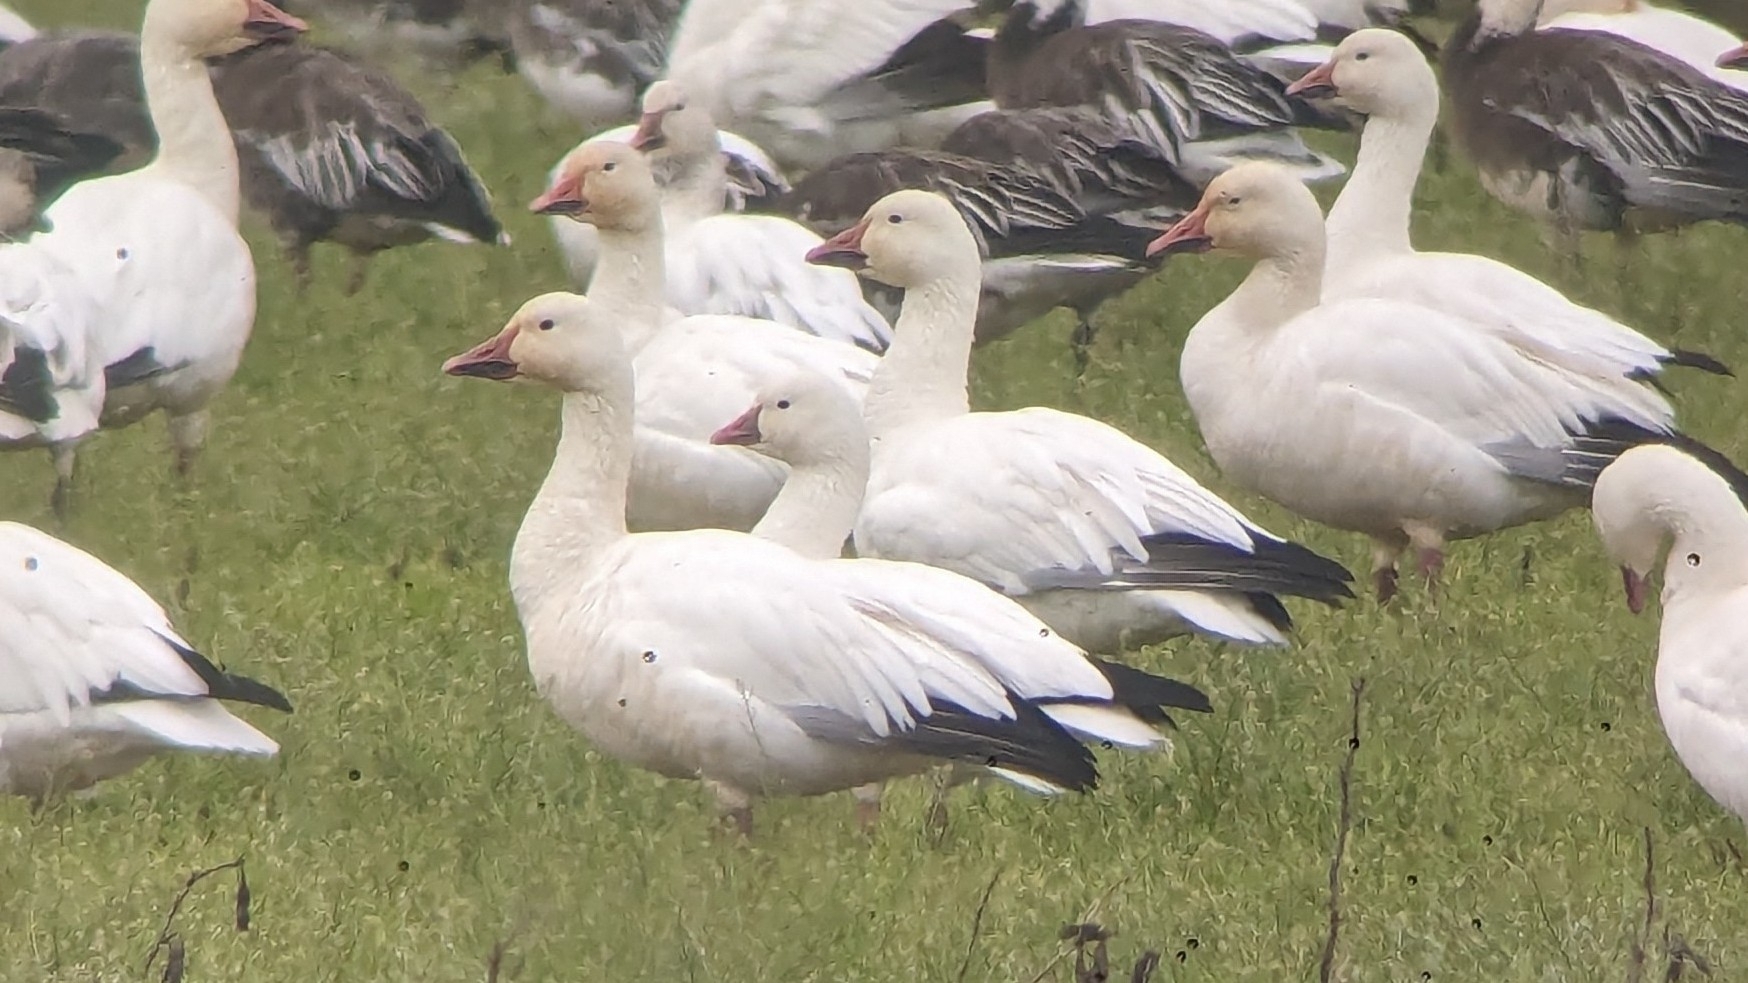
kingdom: Animalia
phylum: Chordata
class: Aves
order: Anseriformes
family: Anatidae
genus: Anser
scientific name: Anser rossii
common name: Ross's goose
